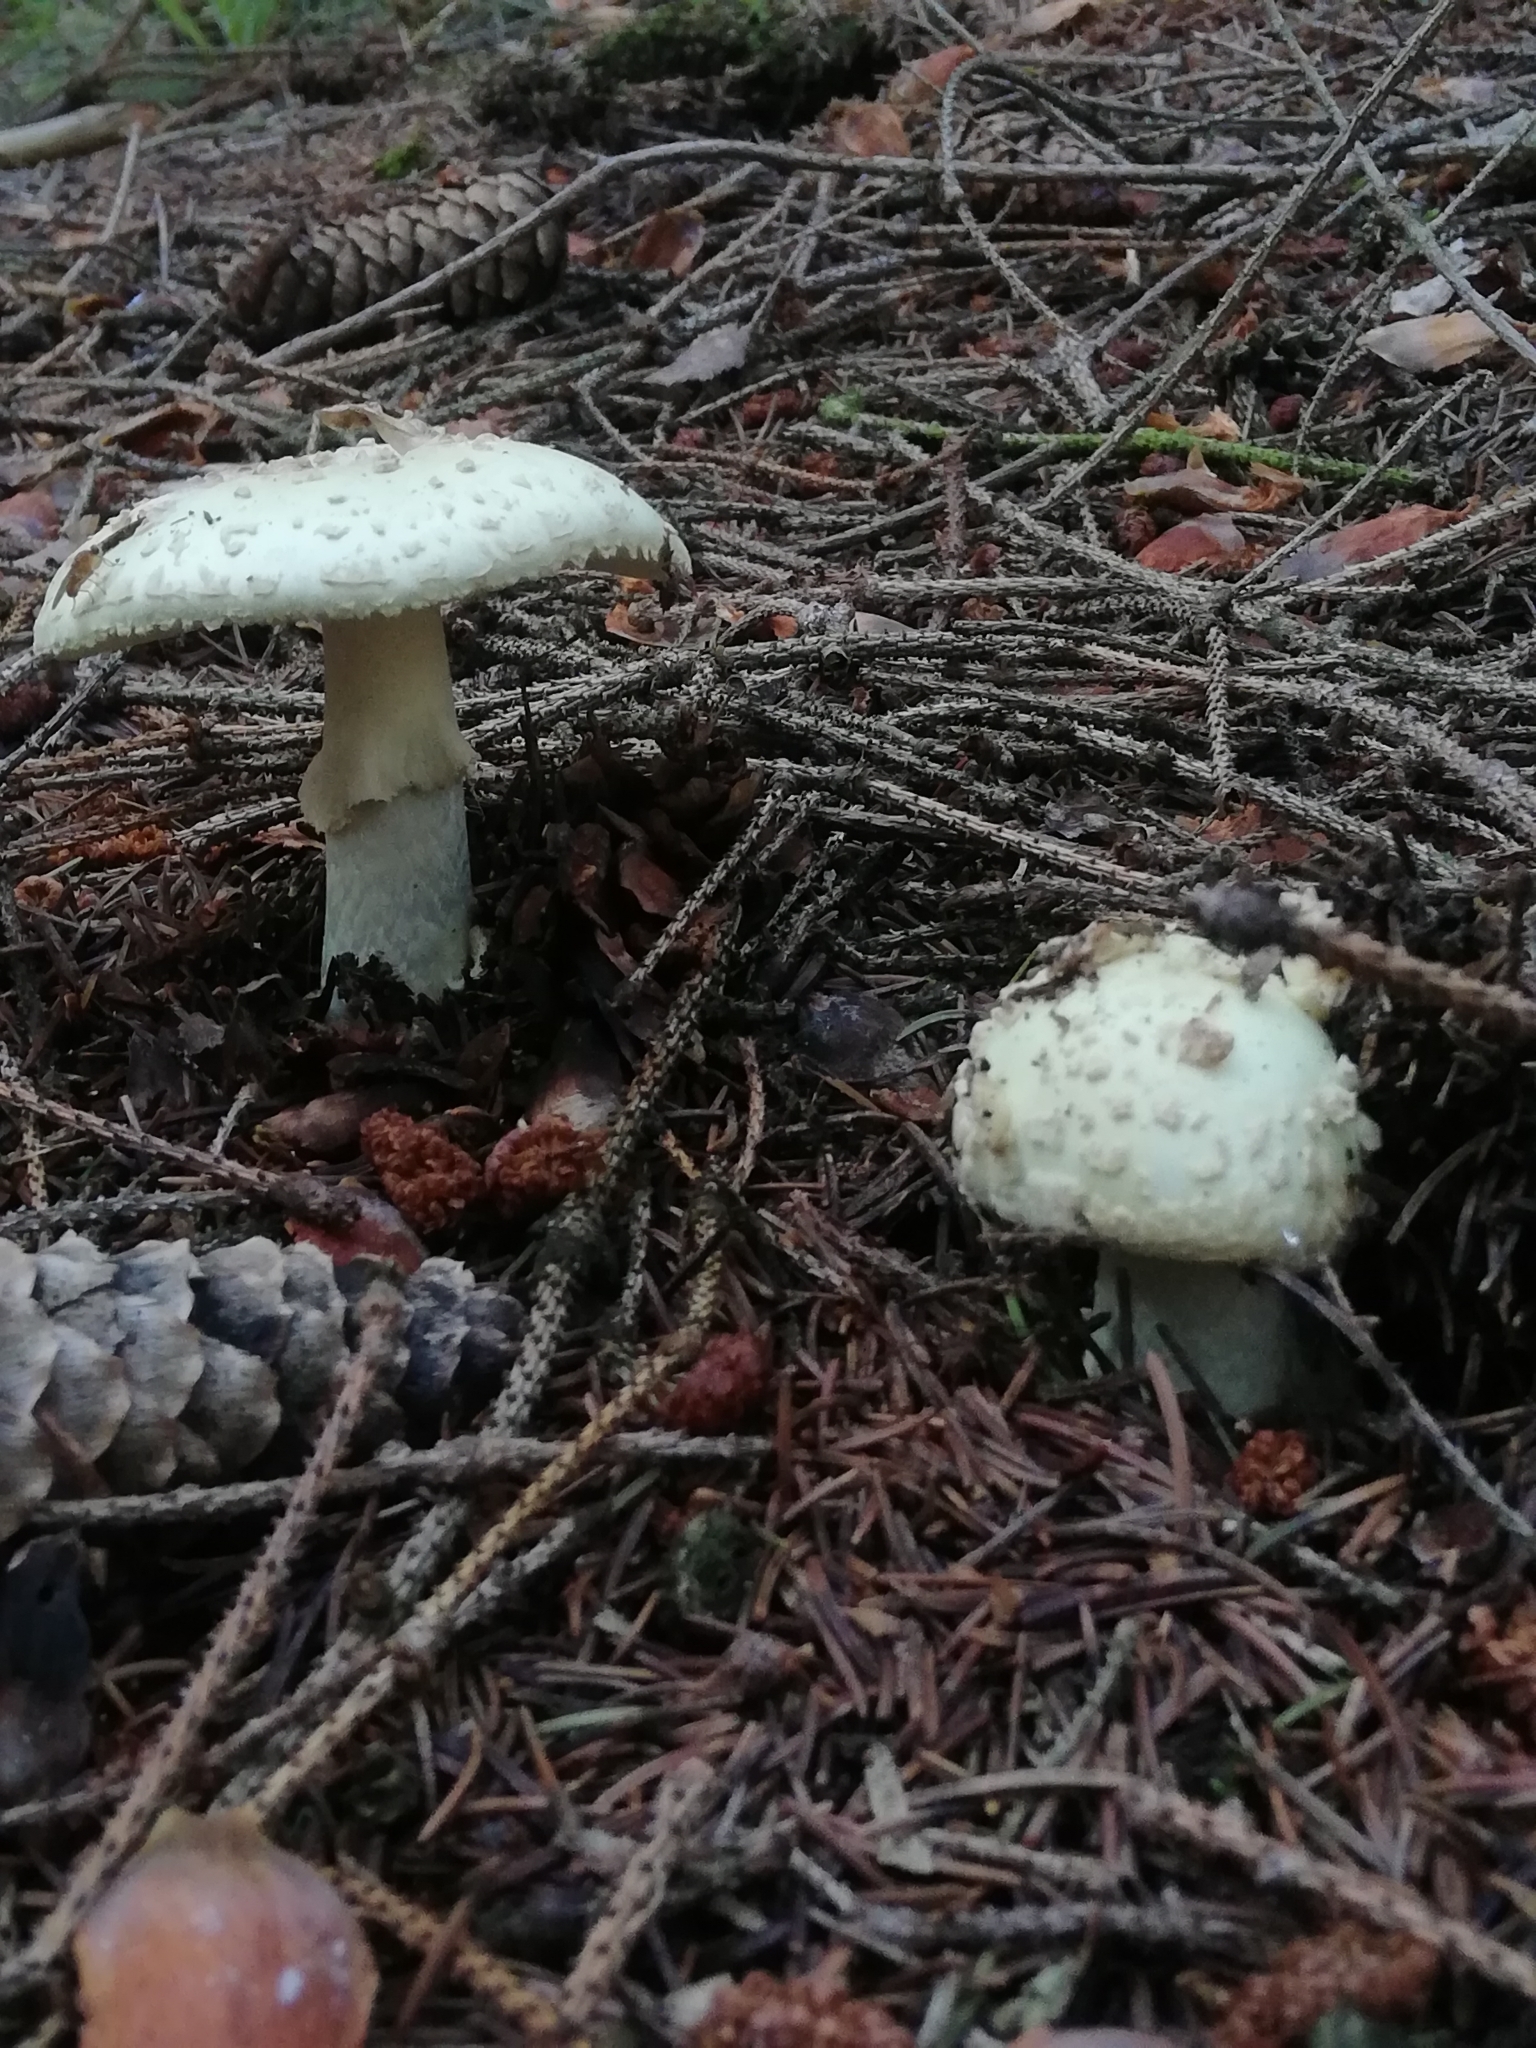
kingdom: Fungi
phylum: Basidiomycota
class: Agaricomycetes
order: Agaricales
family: Amanitaceae
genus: Amanita
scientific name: Amanita citrina
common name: False death-cap
